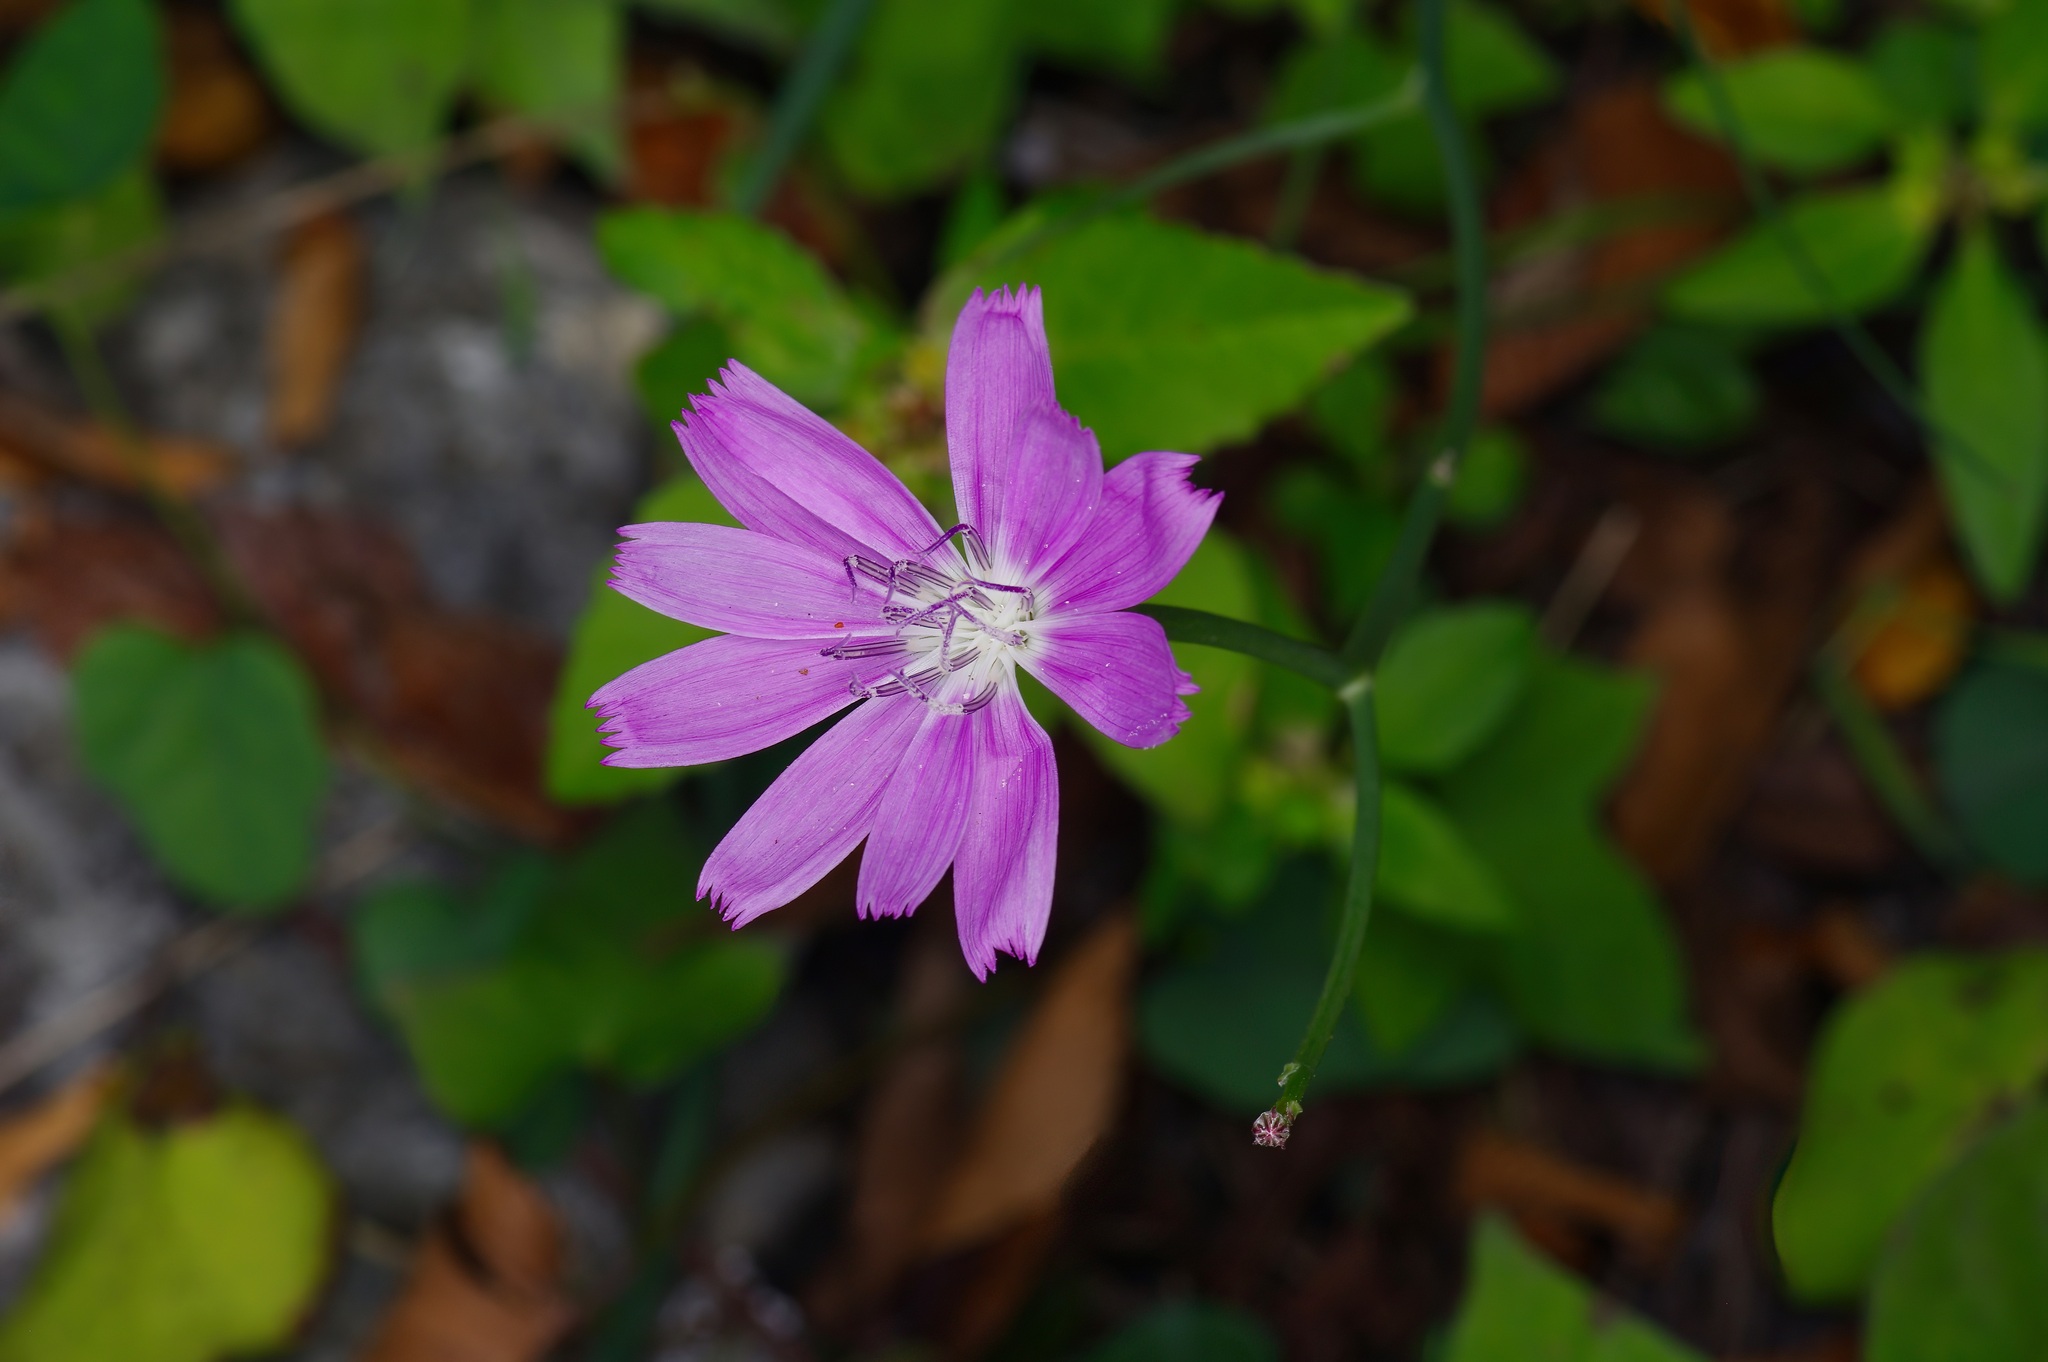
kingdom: Plantae
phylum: Tracheophyta
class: Magnoliopsida
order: Asterales
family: Asteraceae
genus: Lygodesmia
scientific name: Lygodesmia texana
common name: Texas skeleton-plant
